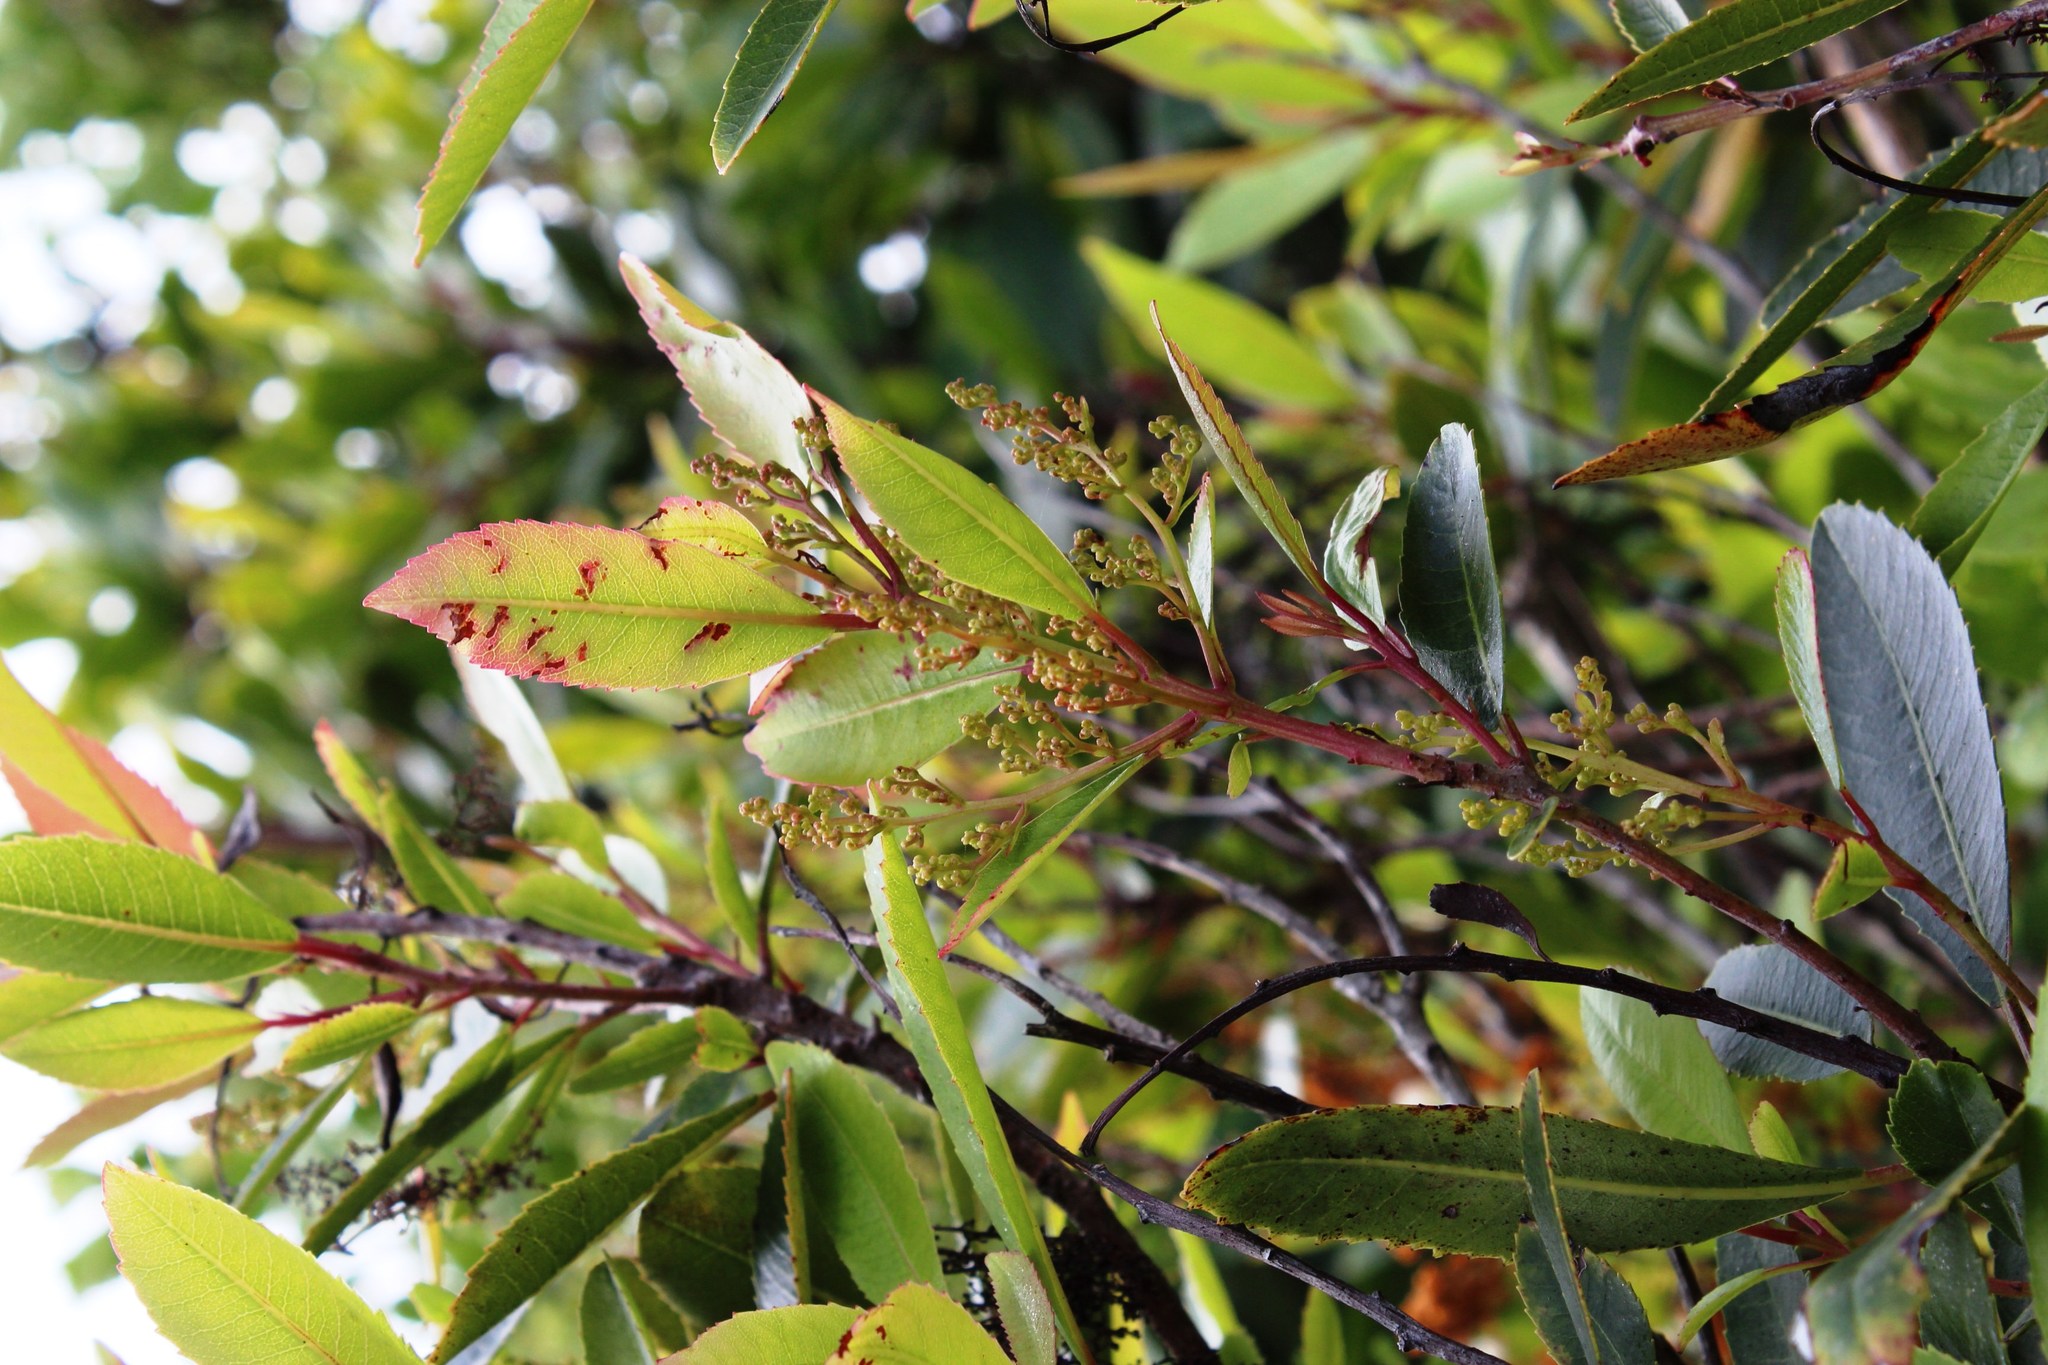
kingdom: Plantae
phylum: Tracheophyta
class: Magnoliopsida
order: Sapindales
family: Anacardiaceae
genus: Laurophyllus
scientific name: Laurophyllus capensis
